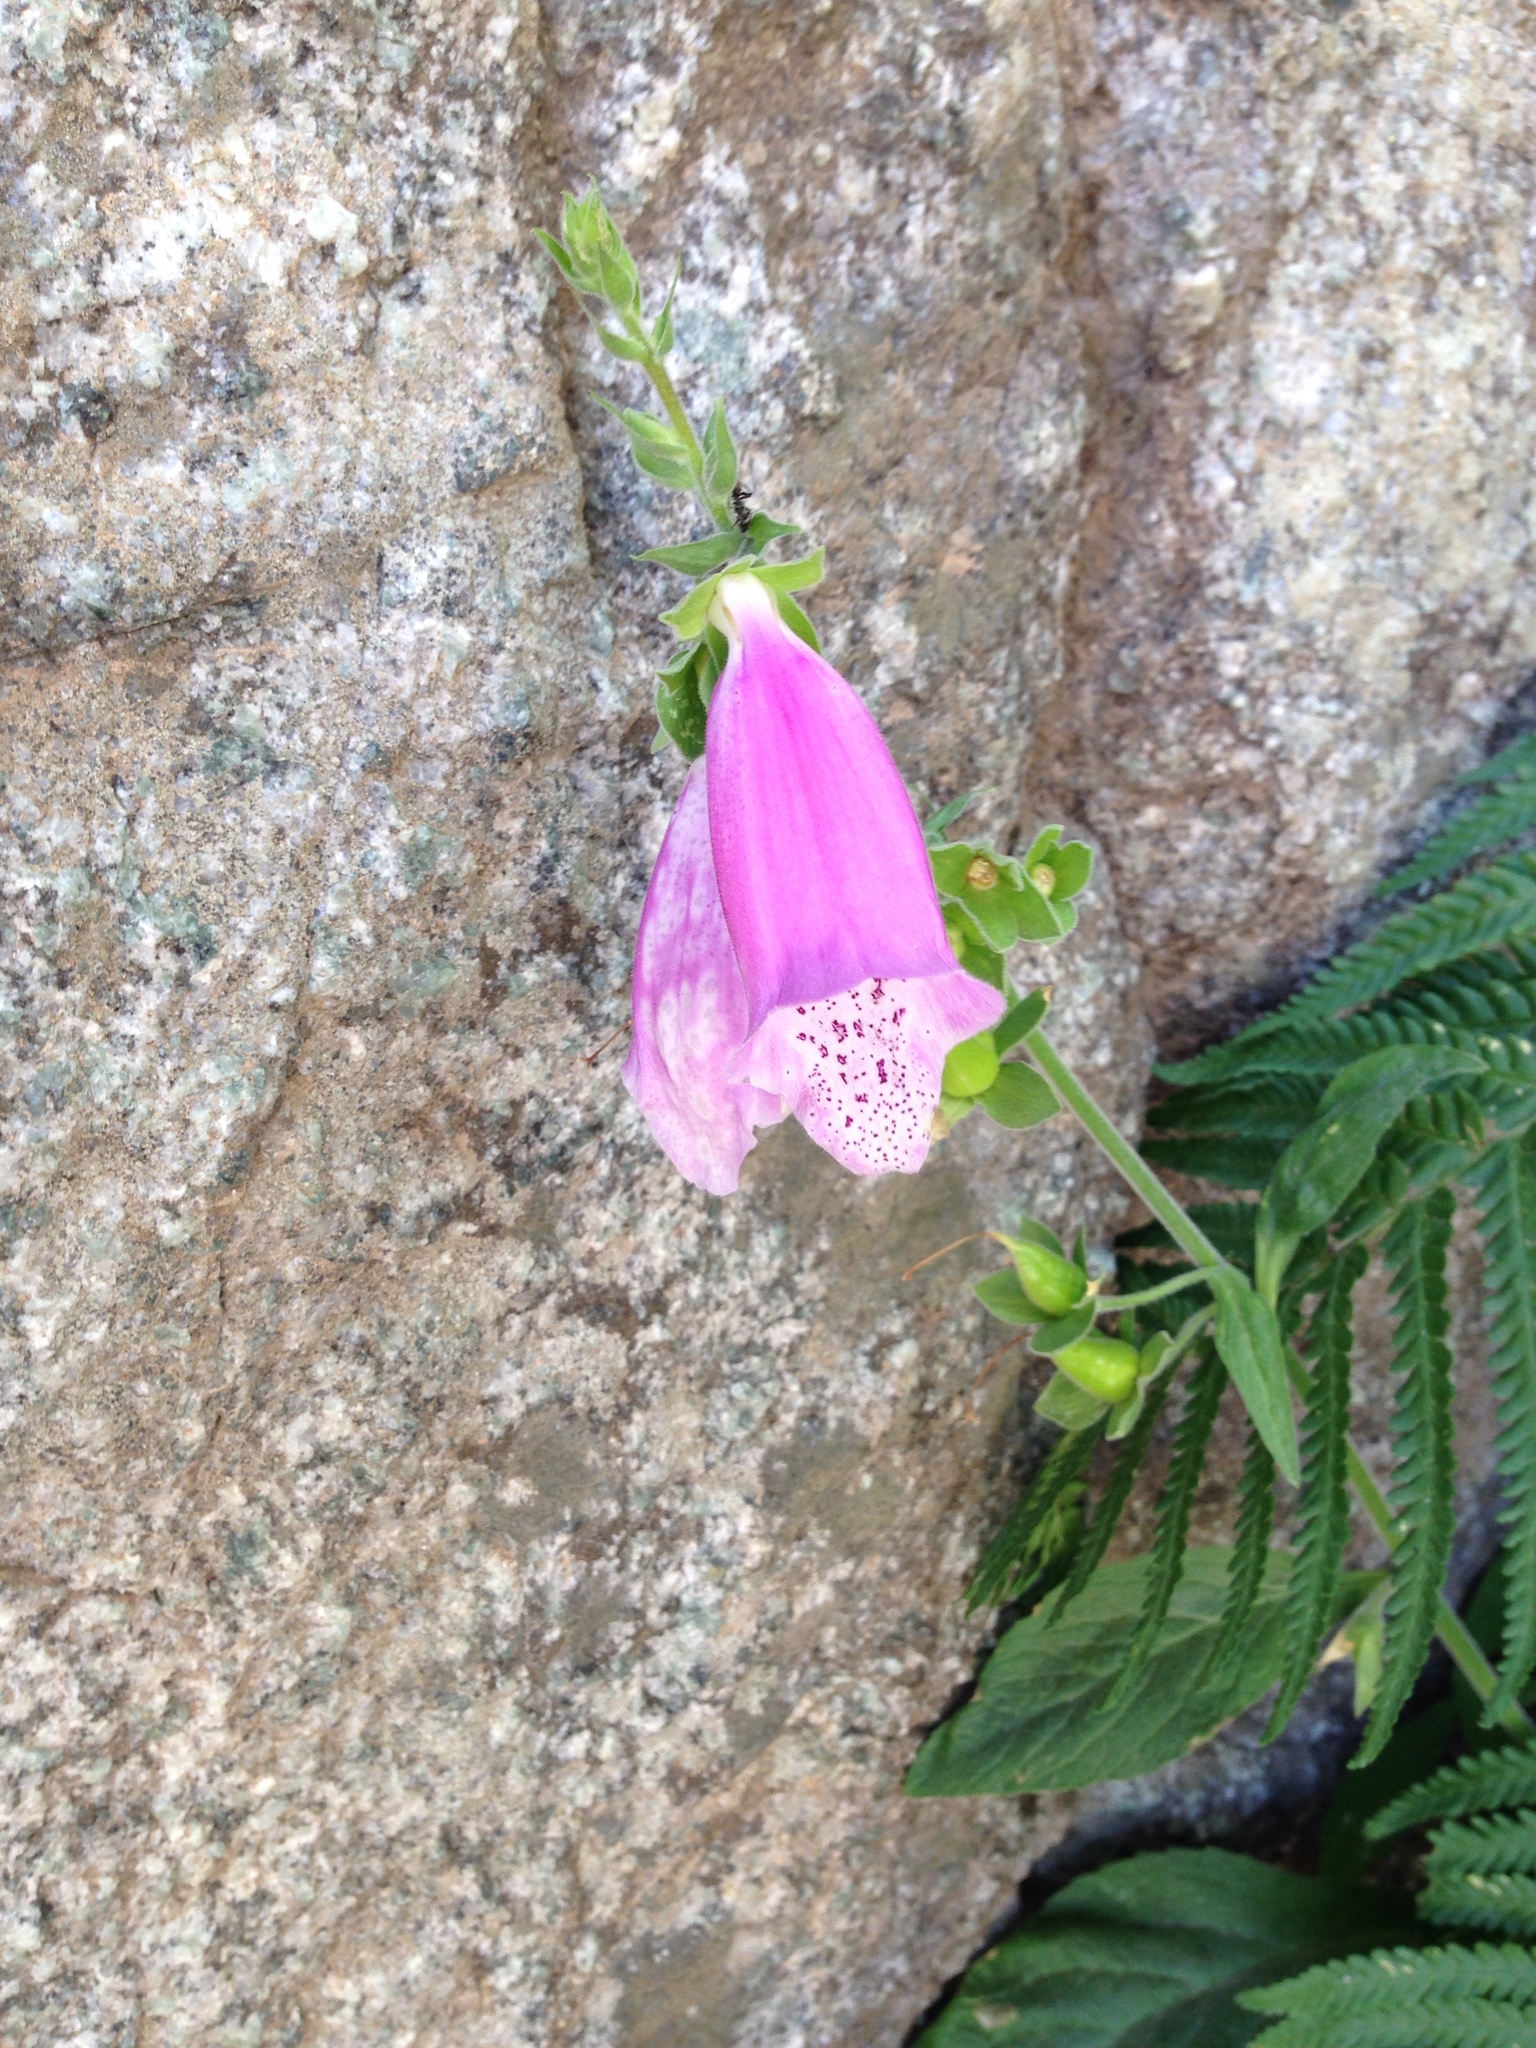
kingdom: Plantae
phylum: Tracheophyta
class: Magnoliopsida
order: Lamiales
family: Plantaginaceae
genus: Digitalis
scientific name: Digitalis purpurea
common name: Foxglove
